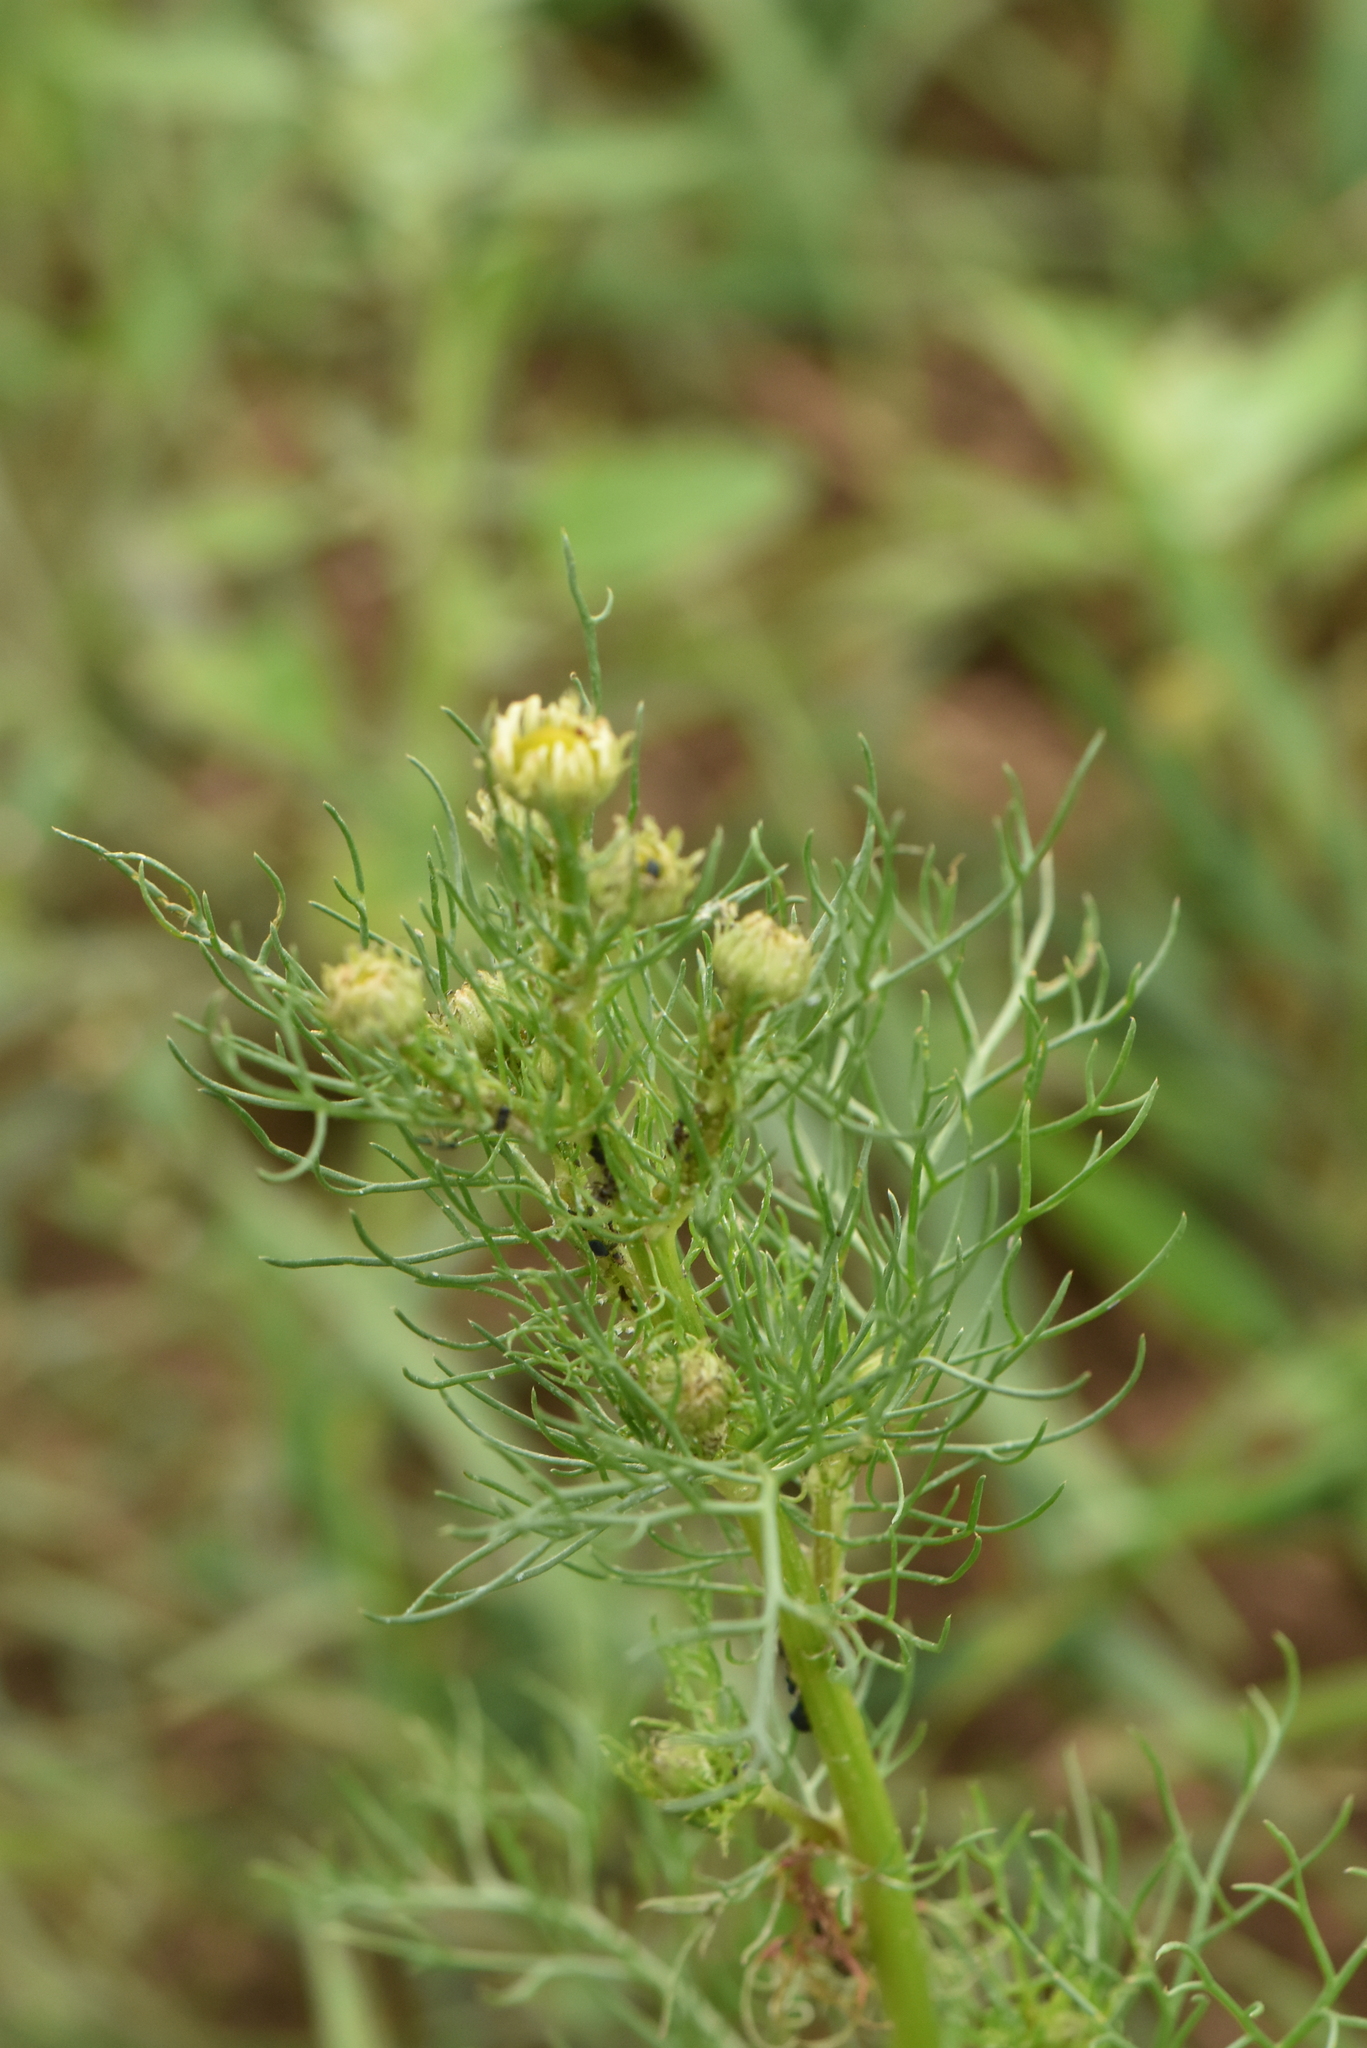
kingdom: Plantae
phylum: Tracheophyta
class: Magnoliopsida
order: Asterales
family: Asteraceae
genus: Tripleurospermum
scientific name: Tripleurospermum inodorum
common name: Scentless mayweed
